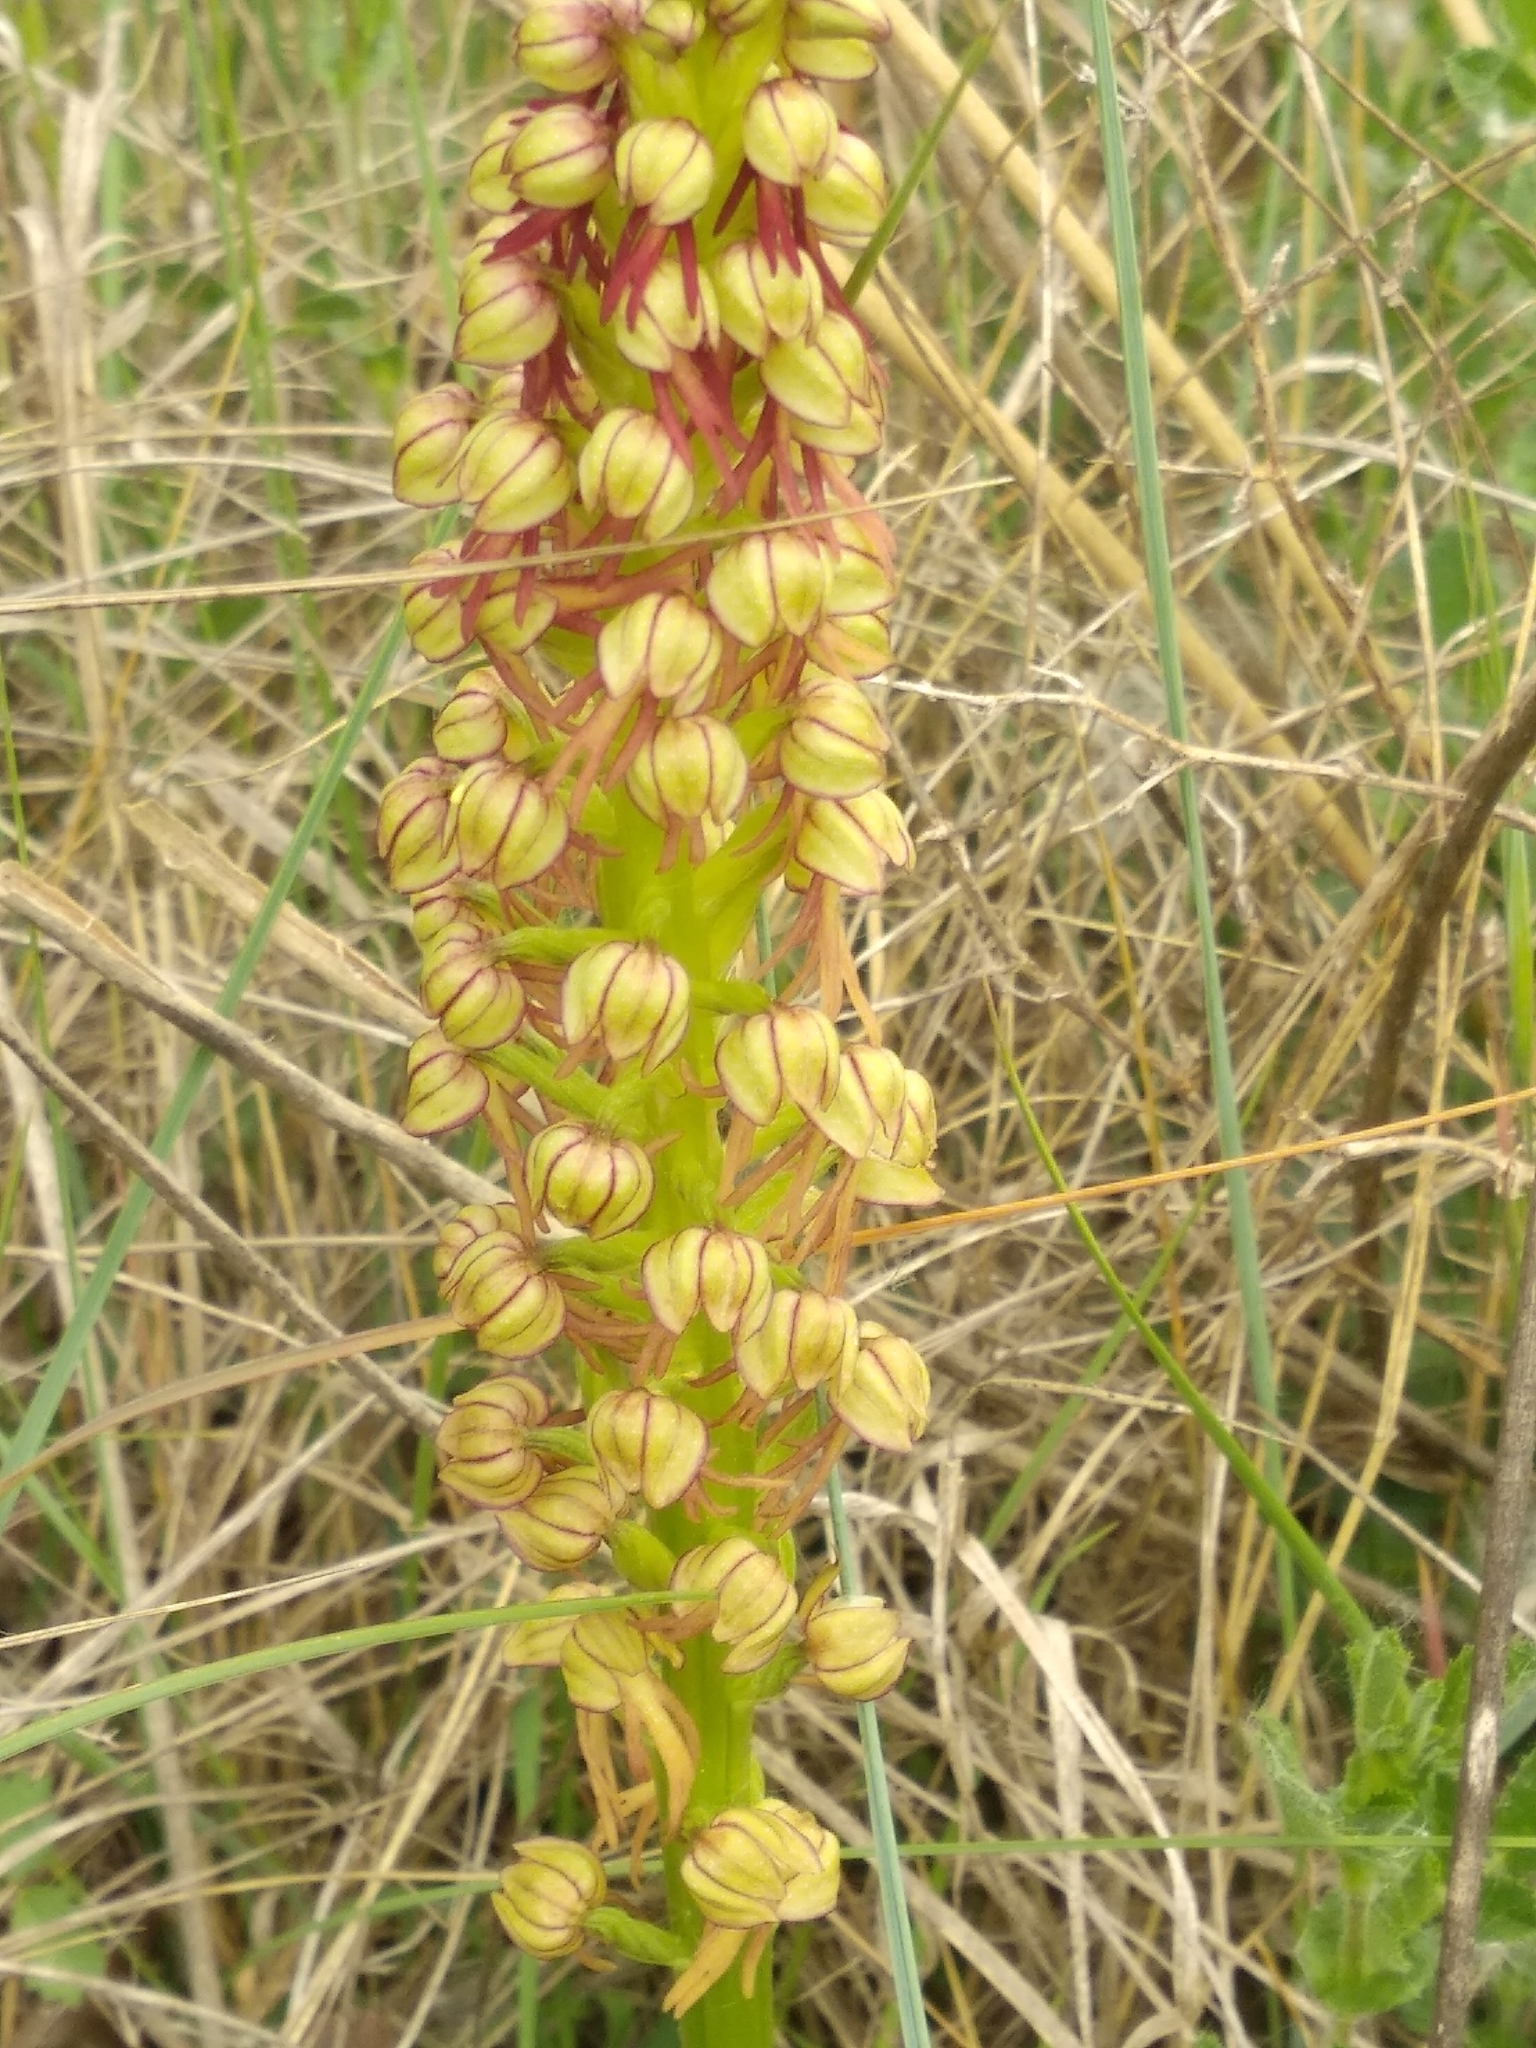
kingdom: Plantae
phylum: Tracheophyta
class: Liliopsida
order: Asparagales
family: Orchidaceae
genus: Orchis
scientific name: Orchis anthropophora
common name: Man orchid
